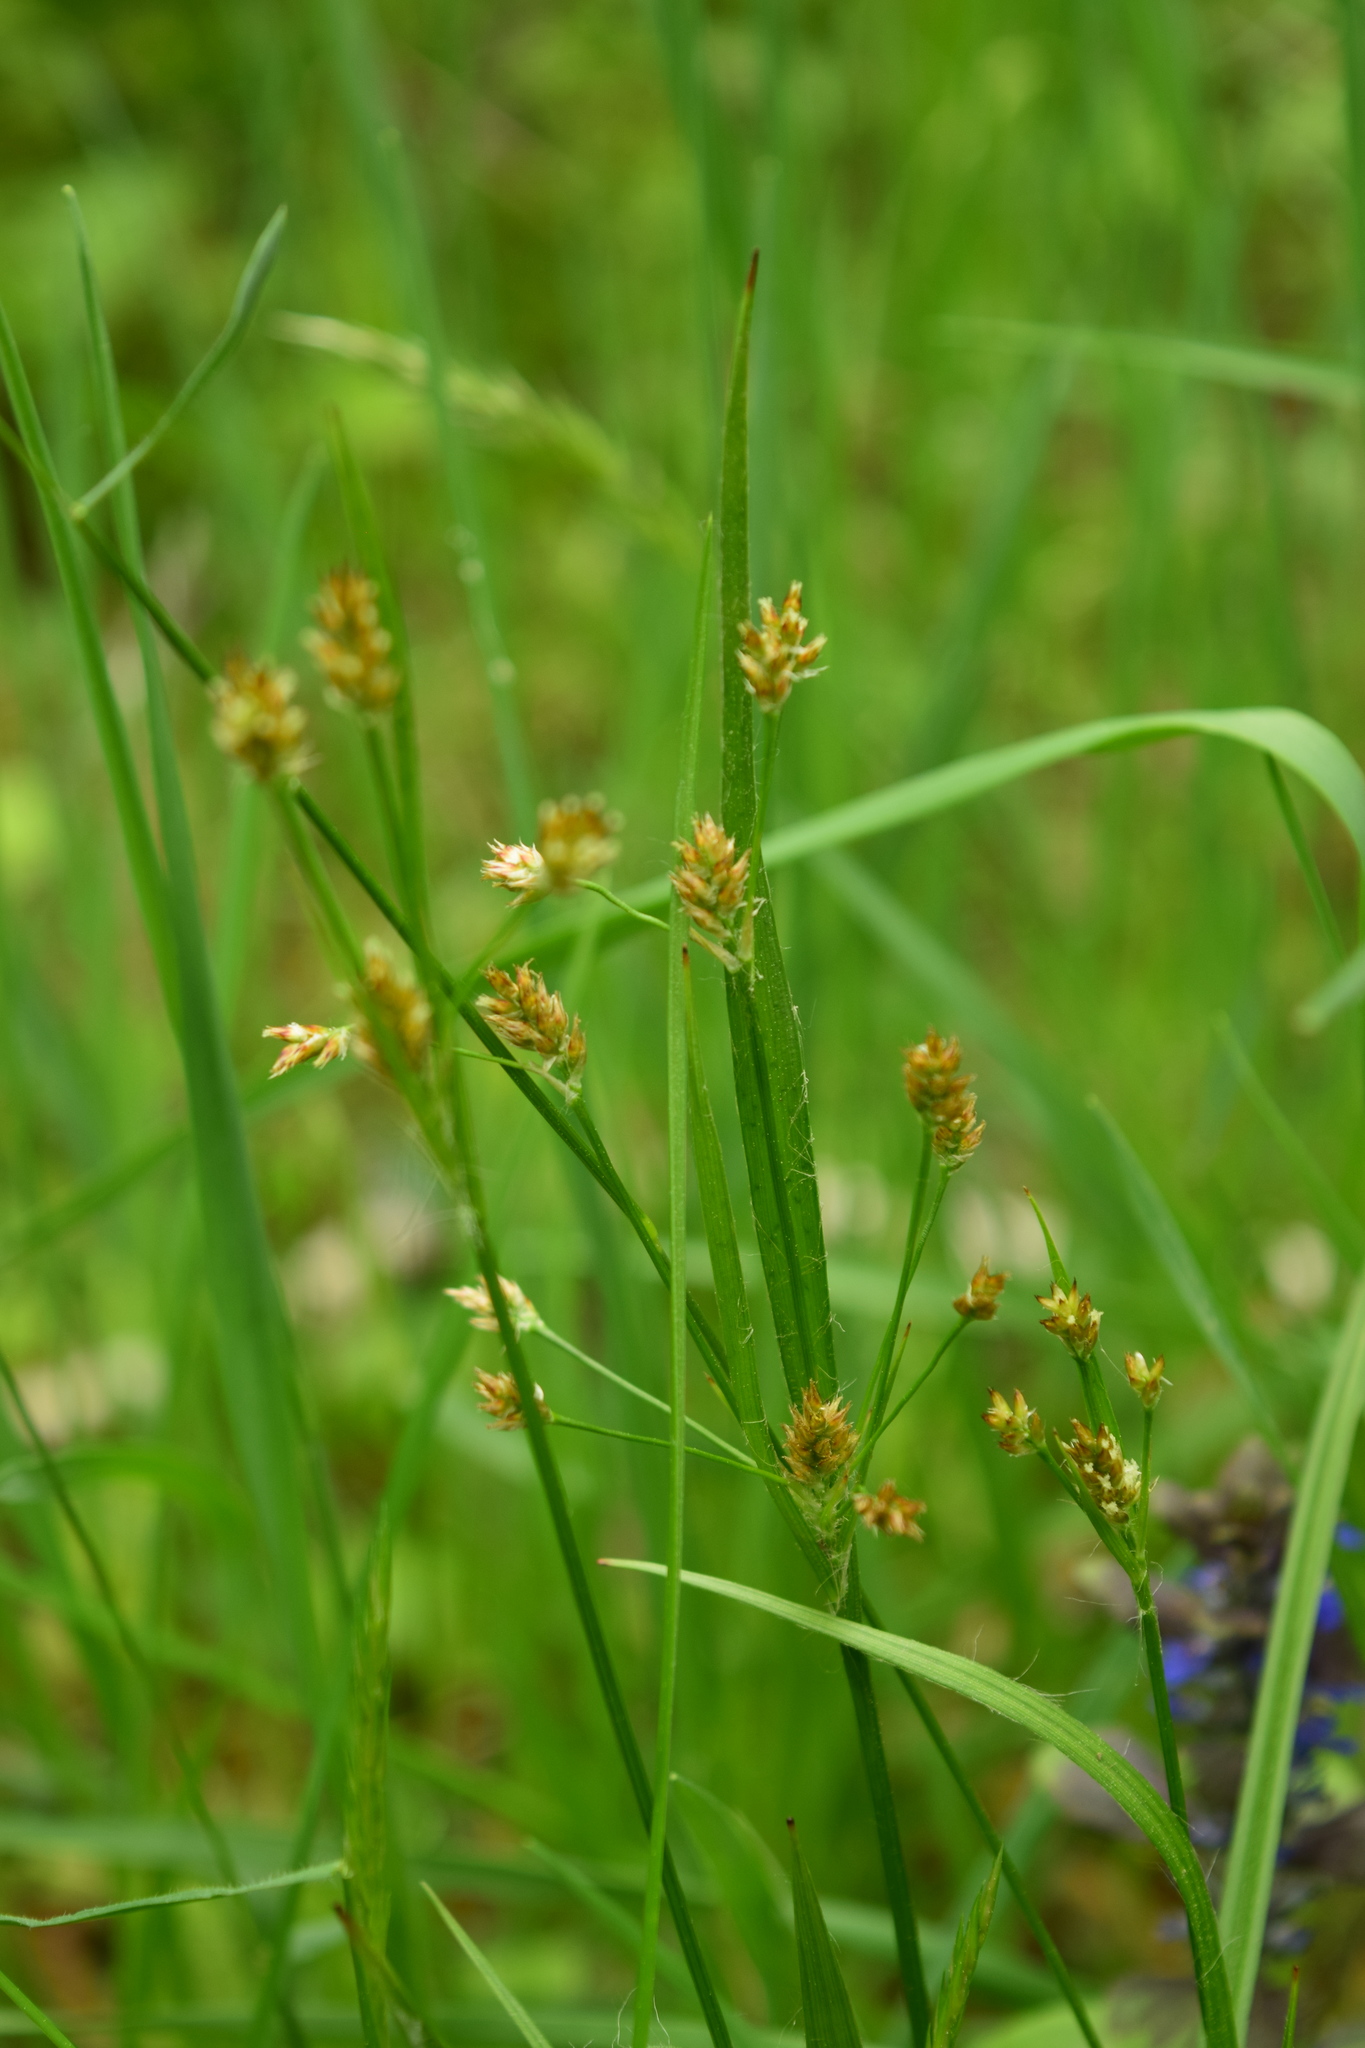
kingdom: Plantae
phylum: Tracheophyta
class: Liliopsida
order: Poales
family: Juncaceae
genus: Luzula
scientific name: Luzula pallescens
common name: Fen wood-rush
